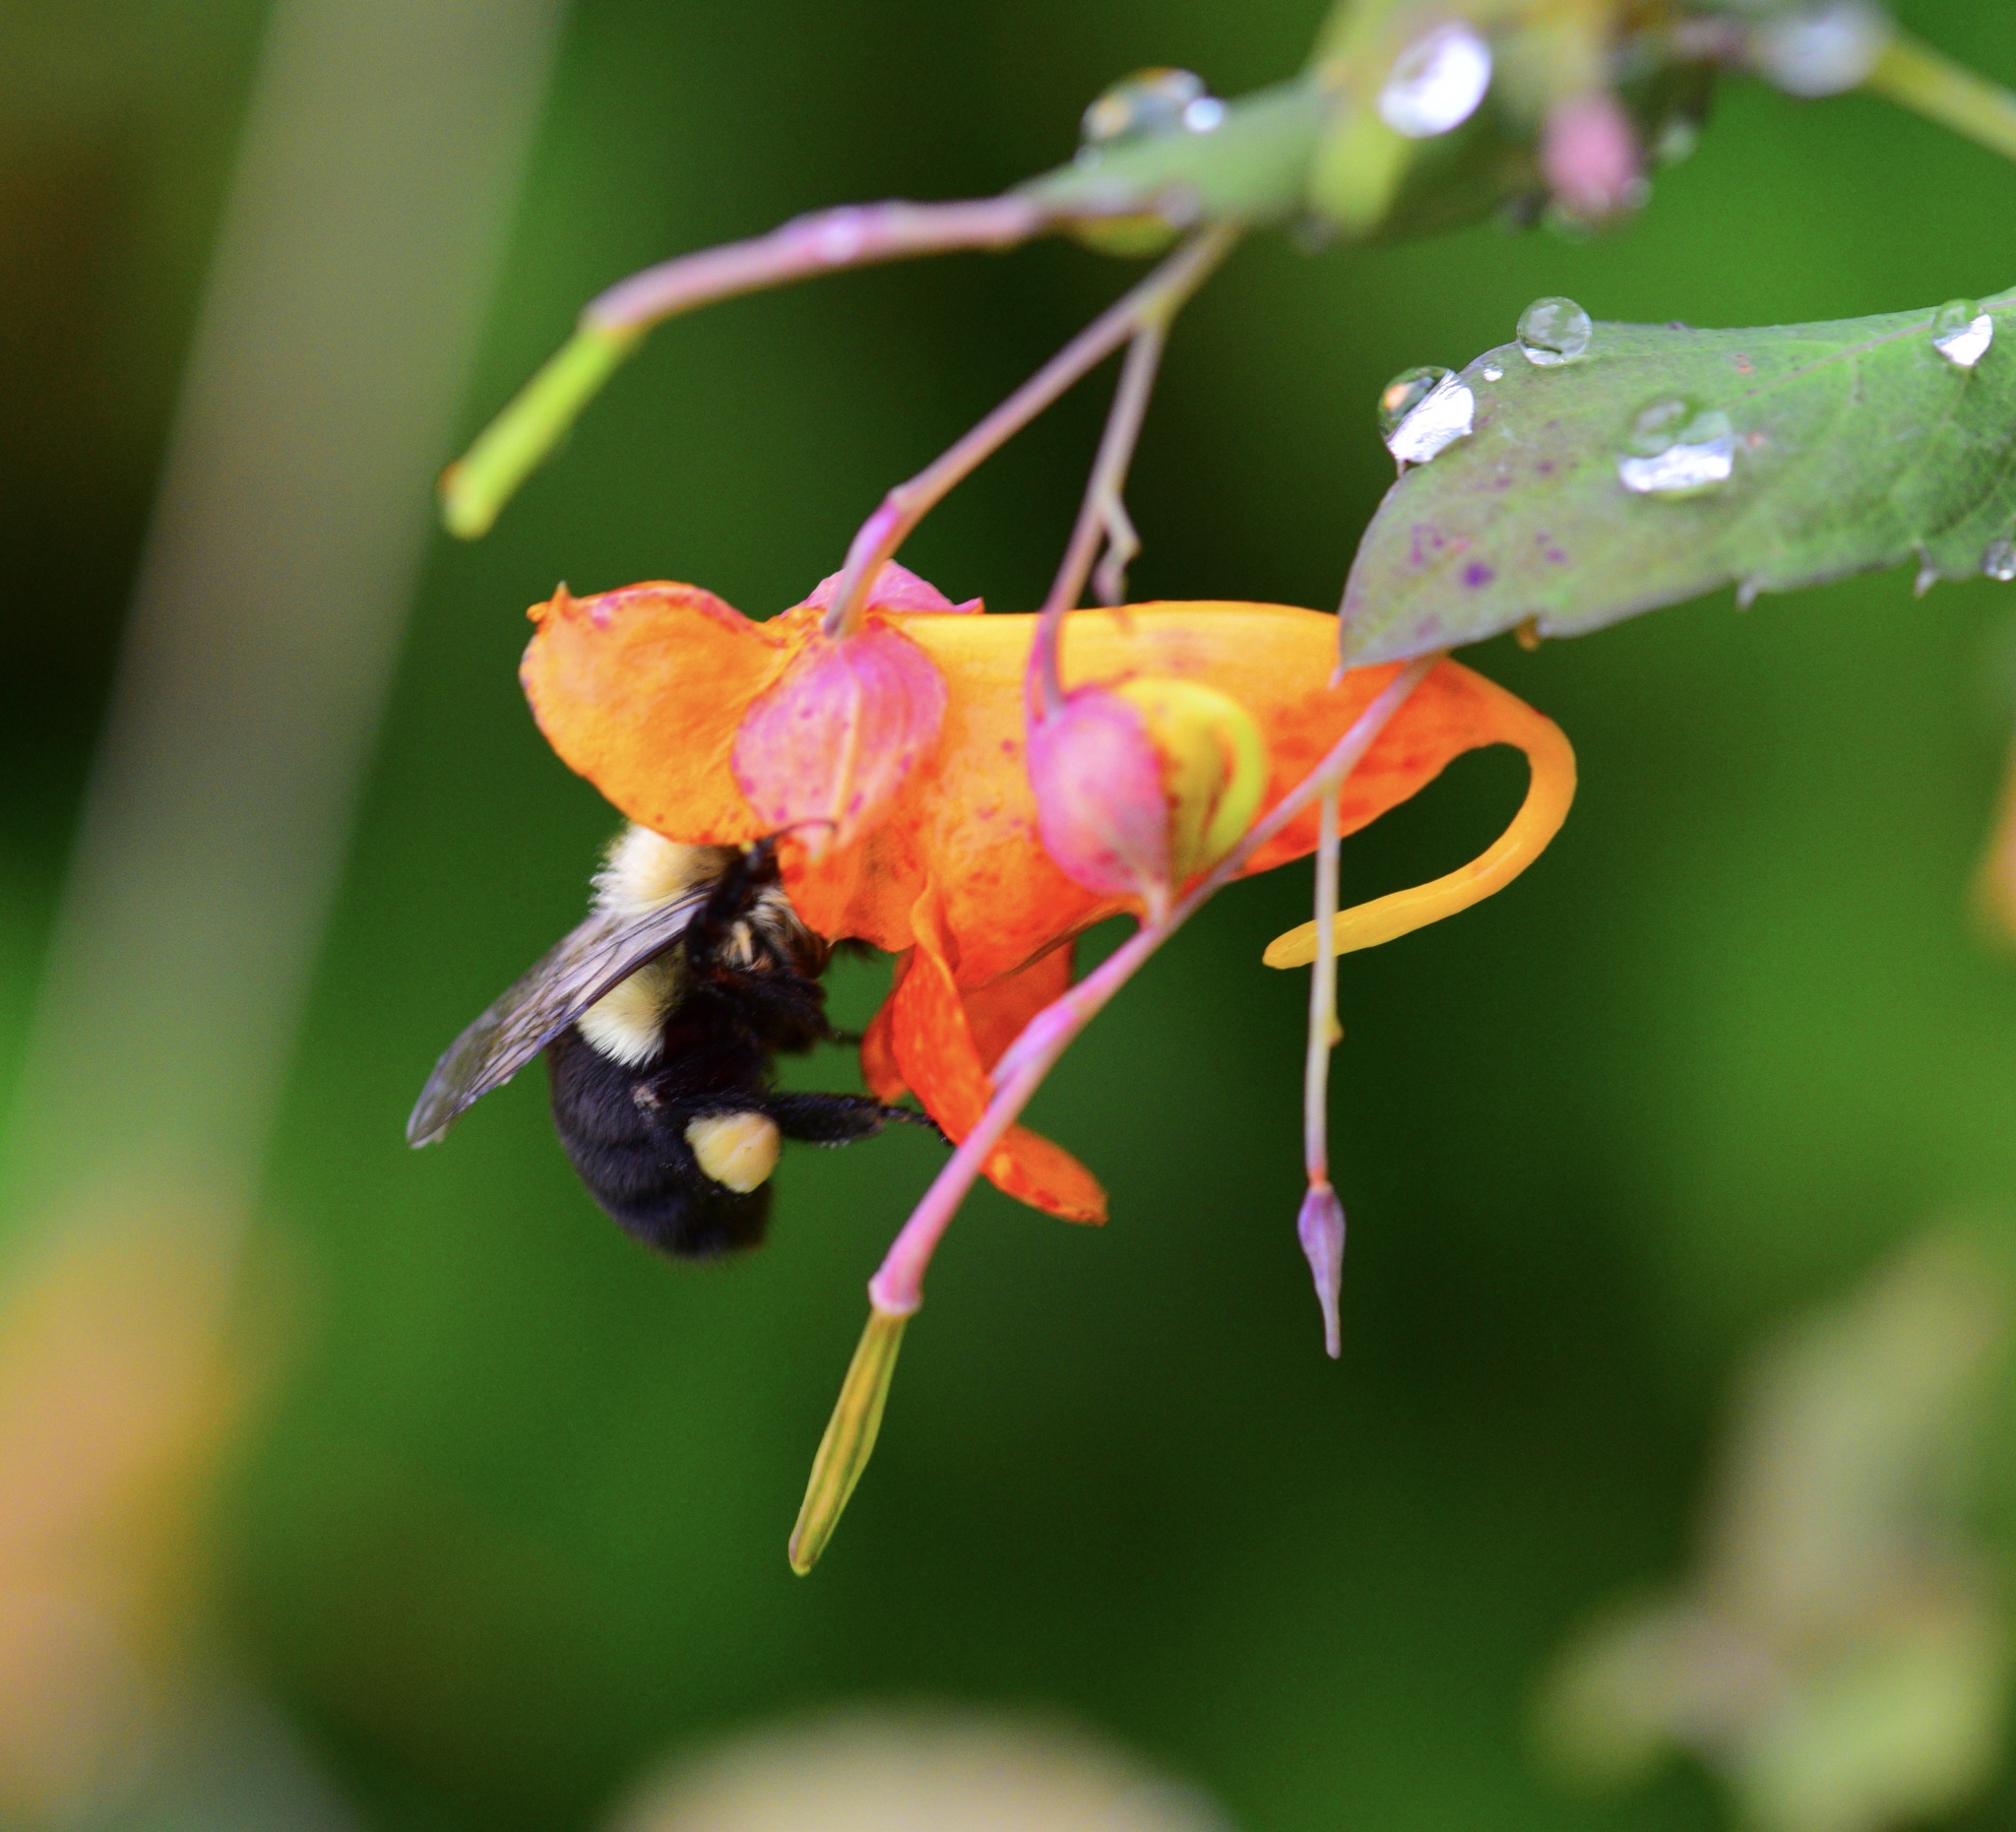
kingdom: Animalia
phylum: Arthropoda
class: Insecta
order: Hymenoptera
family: Apidae
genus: Bombus
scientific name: Bombus impatiens
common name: Common eastern bumble bee
